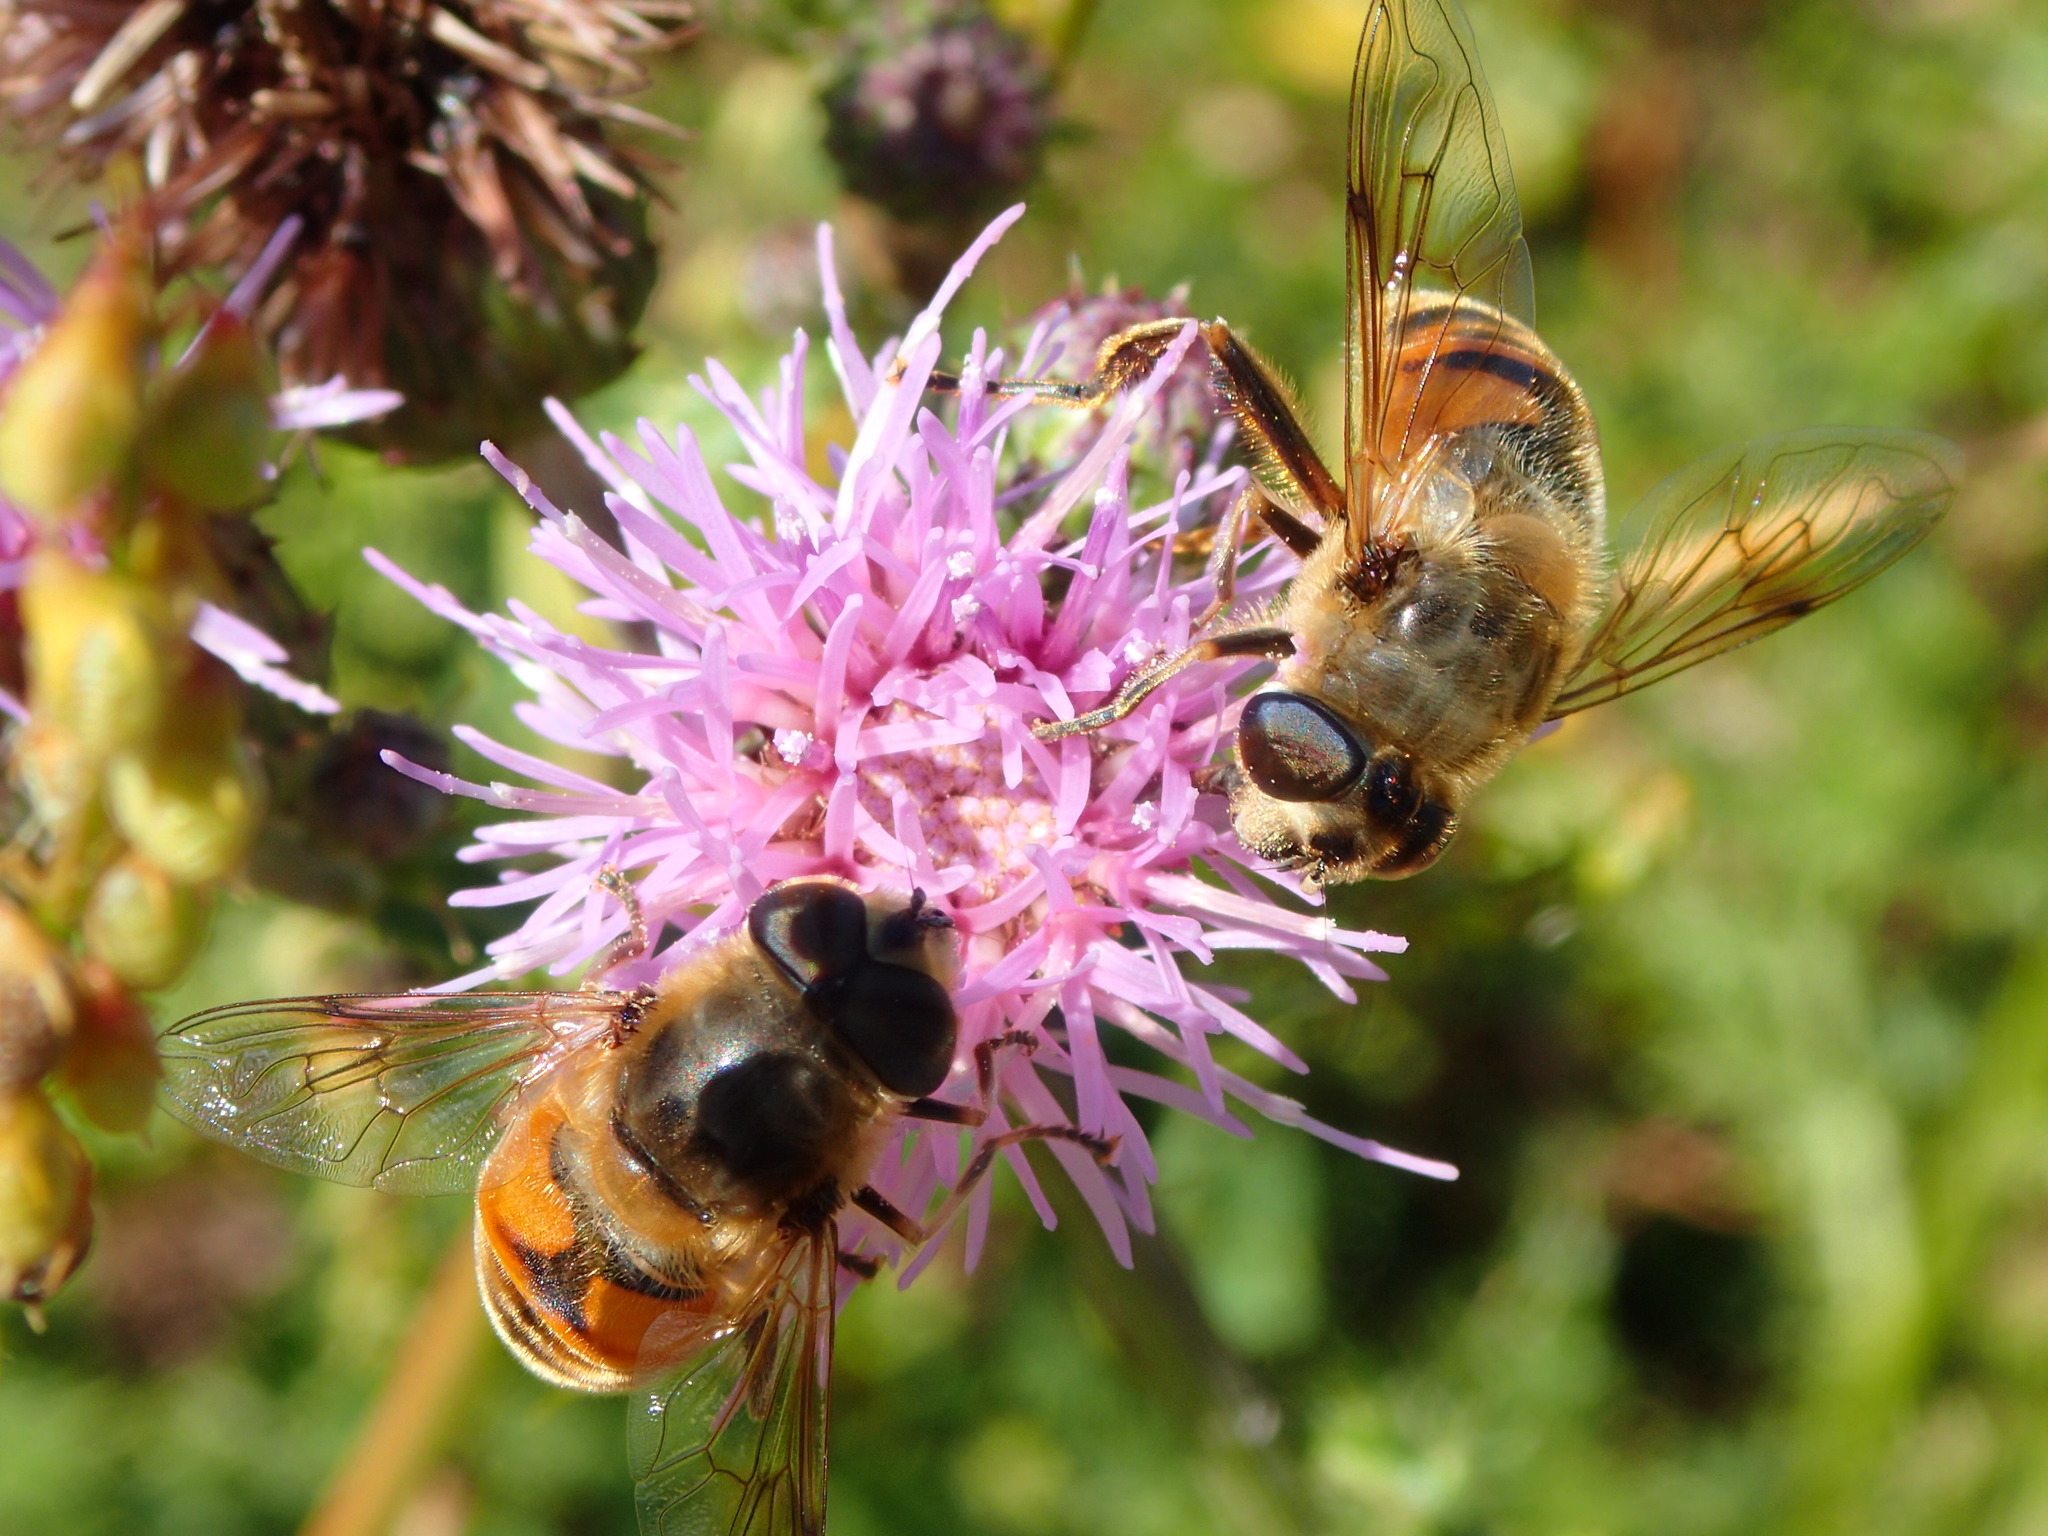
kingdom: Animalia
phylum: Arthropoda
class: Insecta
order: Diptera
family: Syrphidae
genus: Eristalis
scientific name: Eristalis tenax
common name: Drone fly
